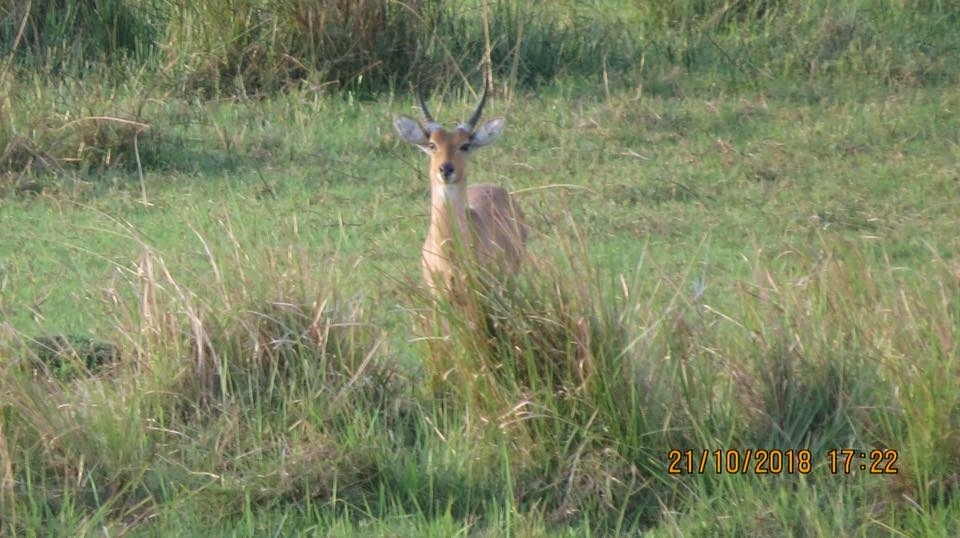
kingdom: Animalia
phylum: Chordata
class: Mammalia
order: Artiodactyla
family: Bovidae
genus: Redunca
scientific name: Redunca arundinum
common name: Southern reedbuck
